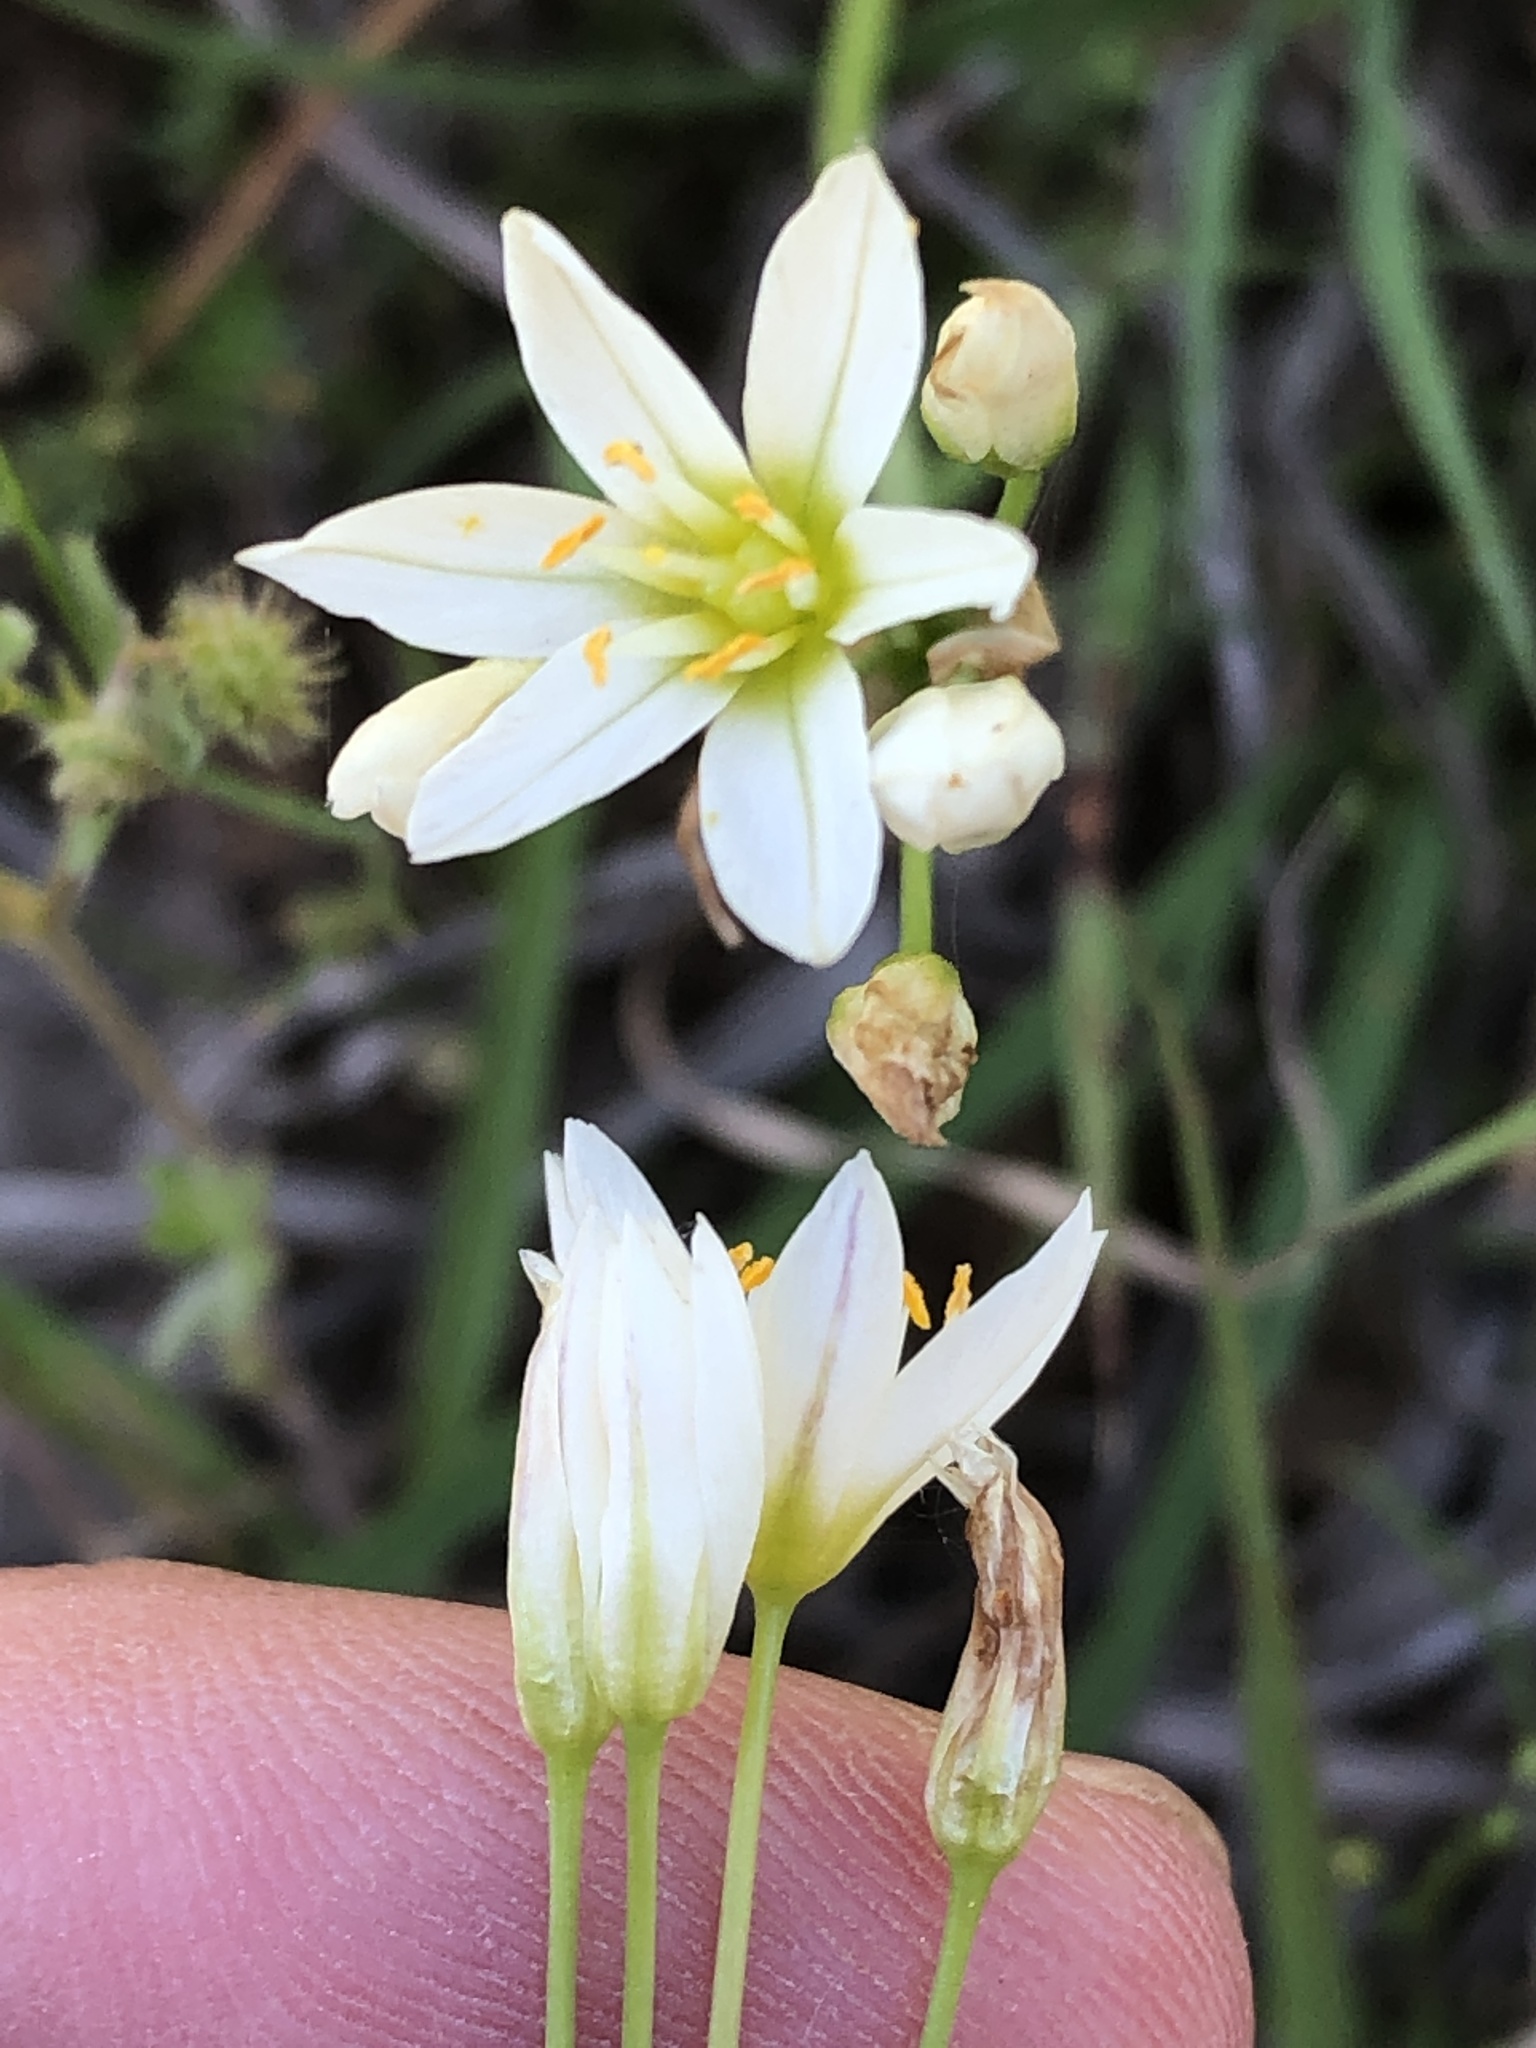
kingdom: Plantae
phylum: Tracheophyta
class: Liliopsida
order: Asparagales
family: Amaryllidaceae
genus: Nothoscordum
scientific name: Nothoscordum bivalve
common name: Crow-poison
